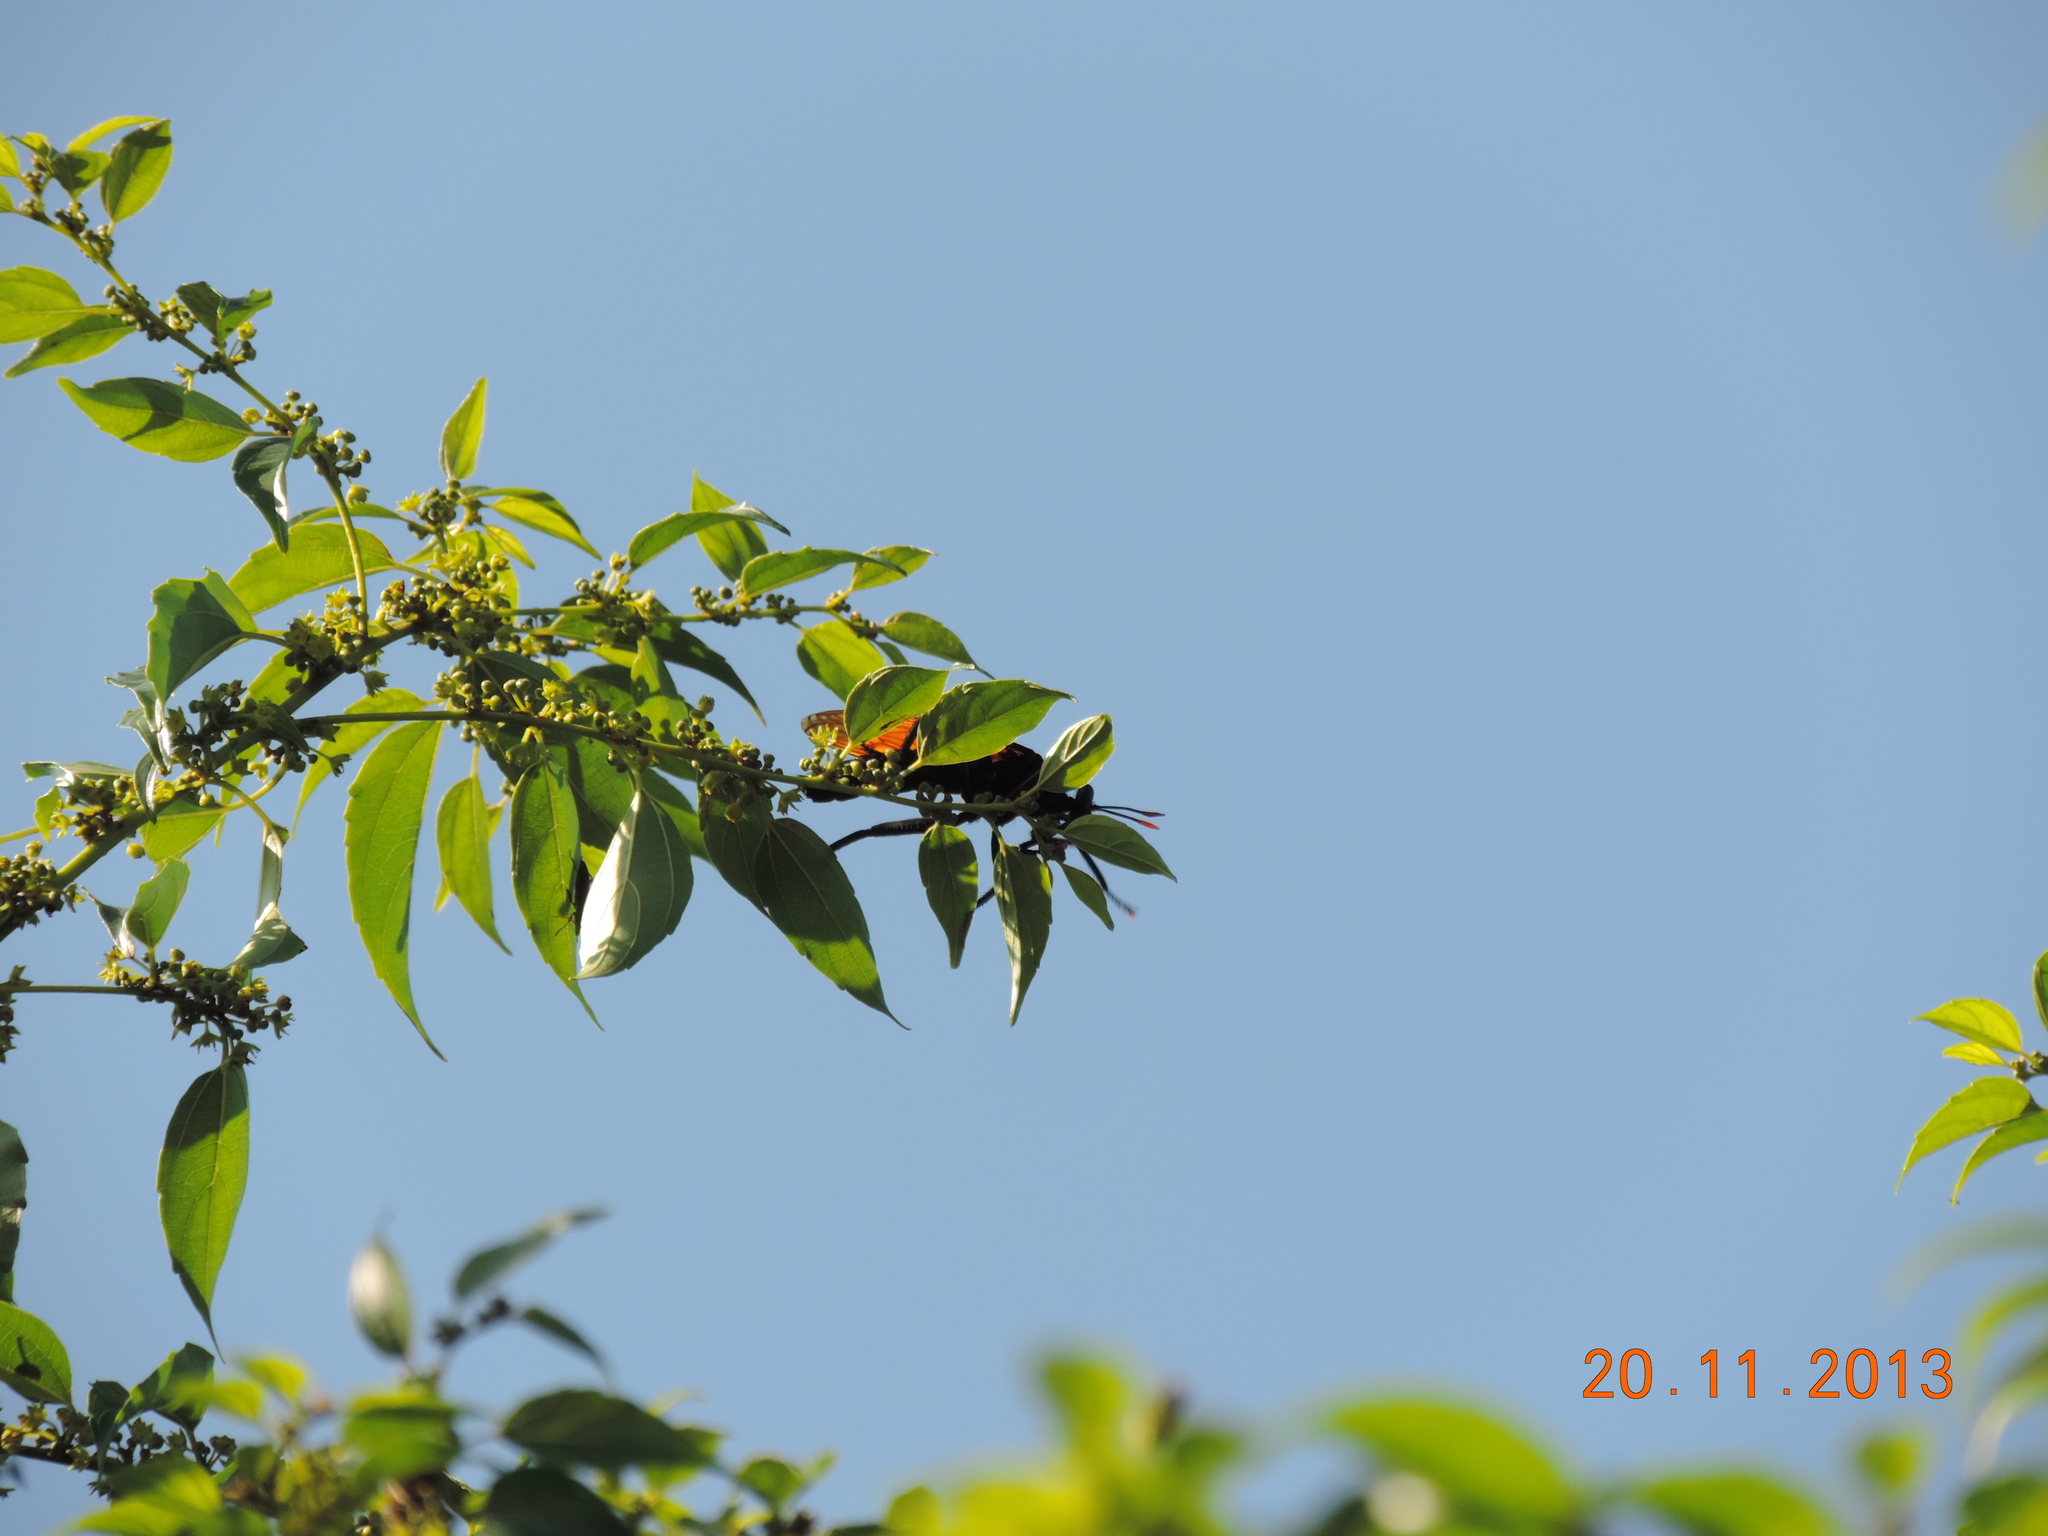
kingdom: Plantae
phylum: Tracheophyta
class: Magnoliopsida
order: Rosales
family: Rhamnaceae
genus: Colubrina
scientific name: Colubrina triflora
